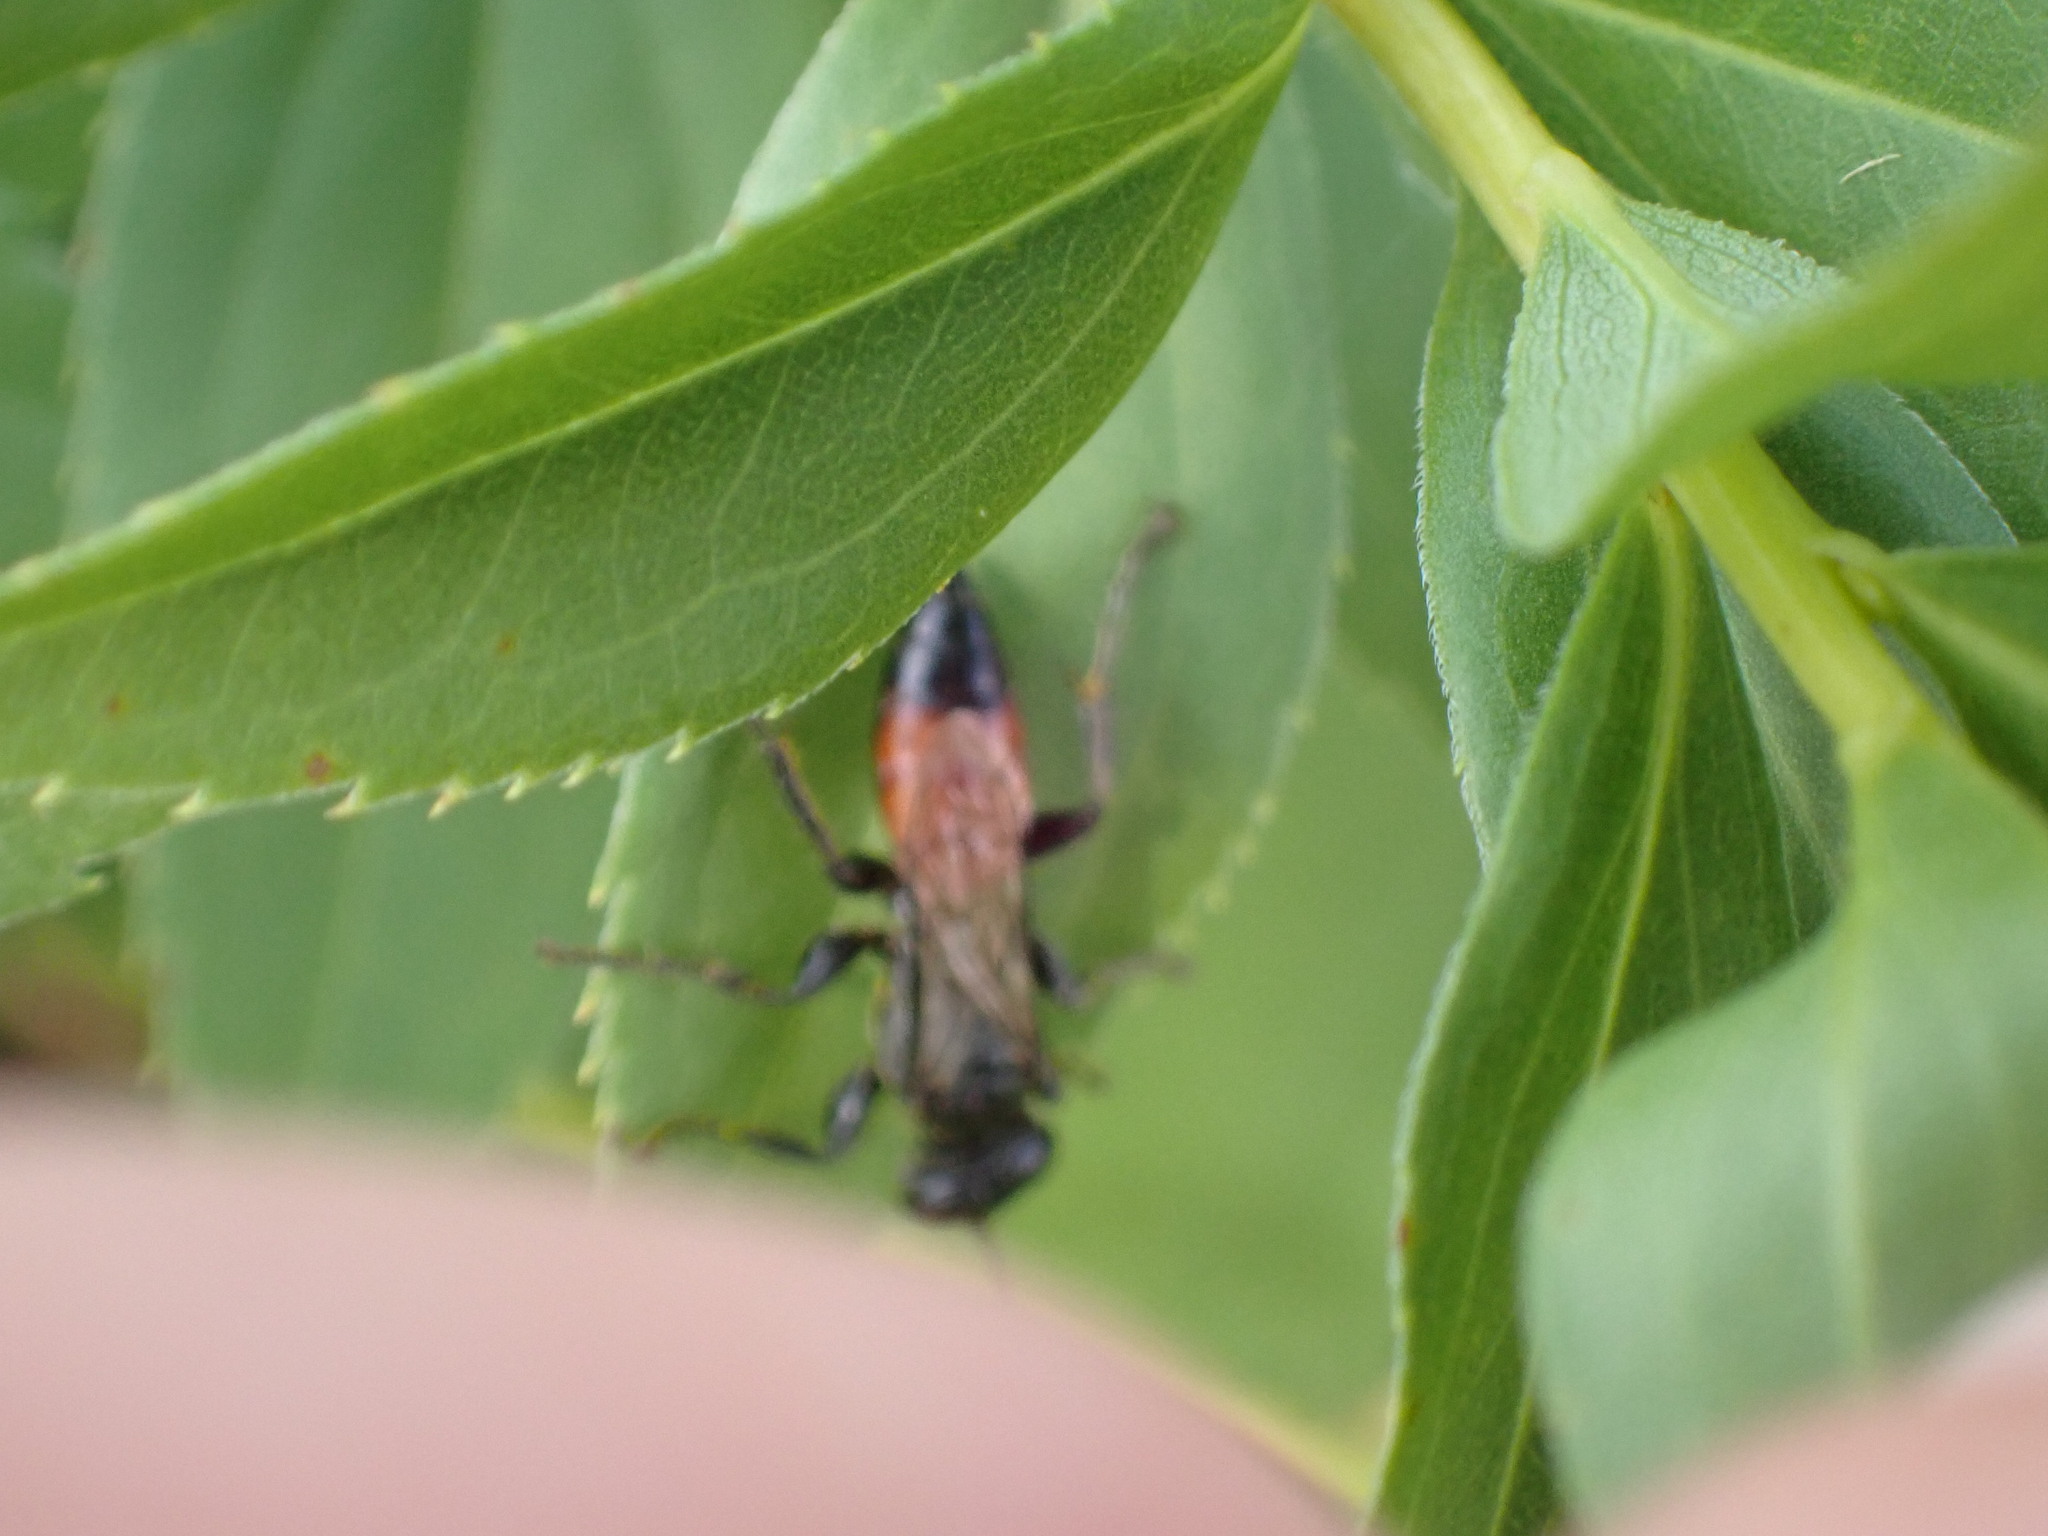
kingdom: Animalia
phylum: Arthropoda
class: Insecta
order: Hymenoptera
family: Crabronidae
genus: Larropsis
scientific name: Larropsis distincta
